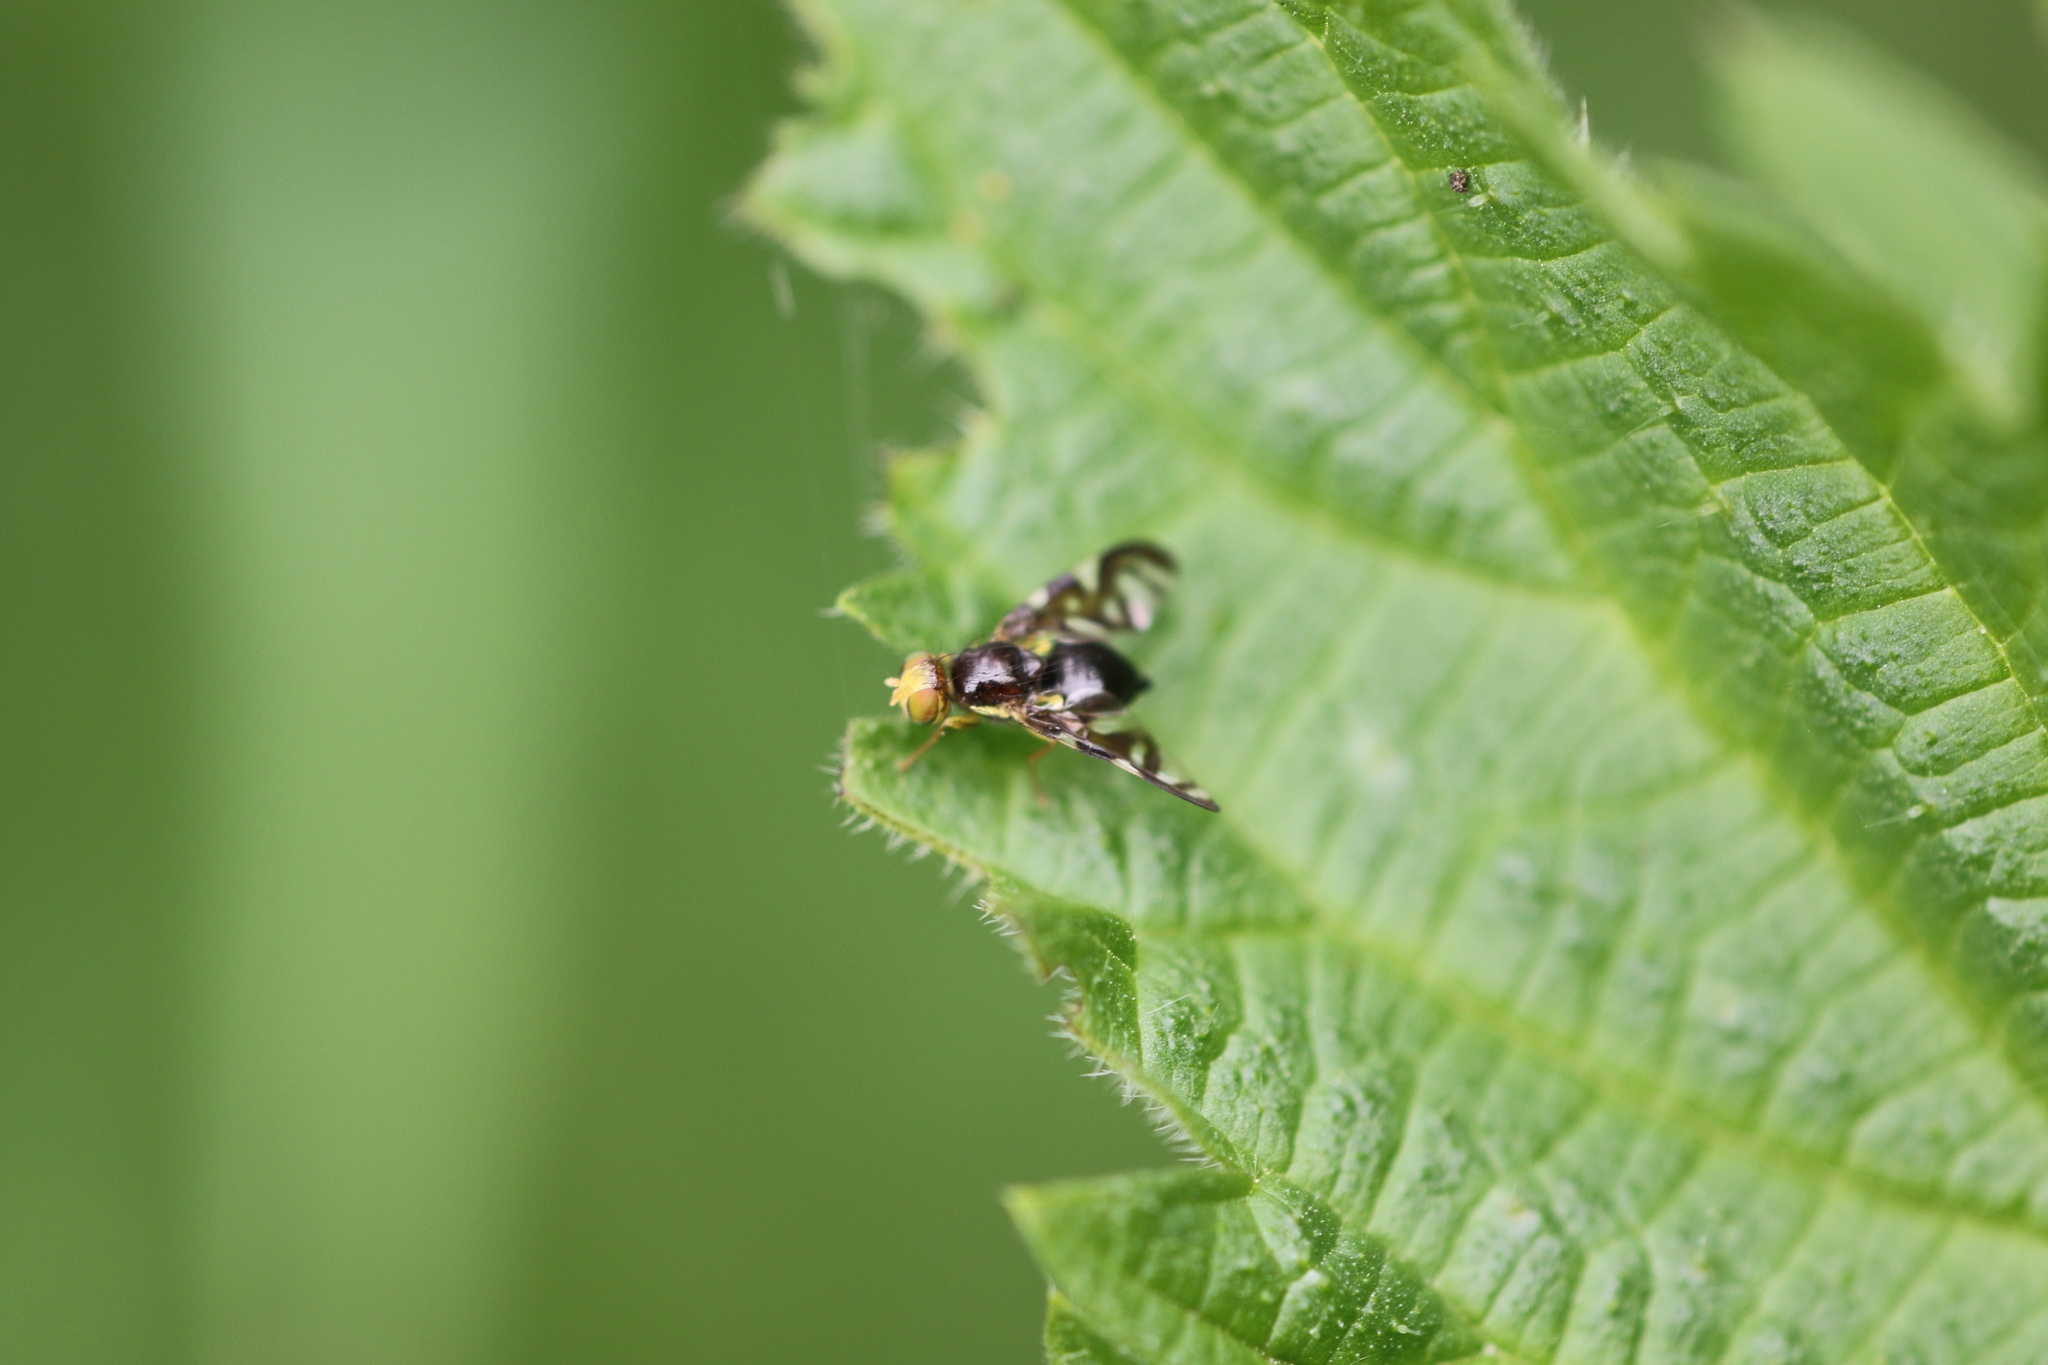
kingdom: Animalia
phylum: Arthropoda
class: Insecta
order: Diptera
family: Tephritidae
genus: Euleia
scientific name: Euleia heraclei
